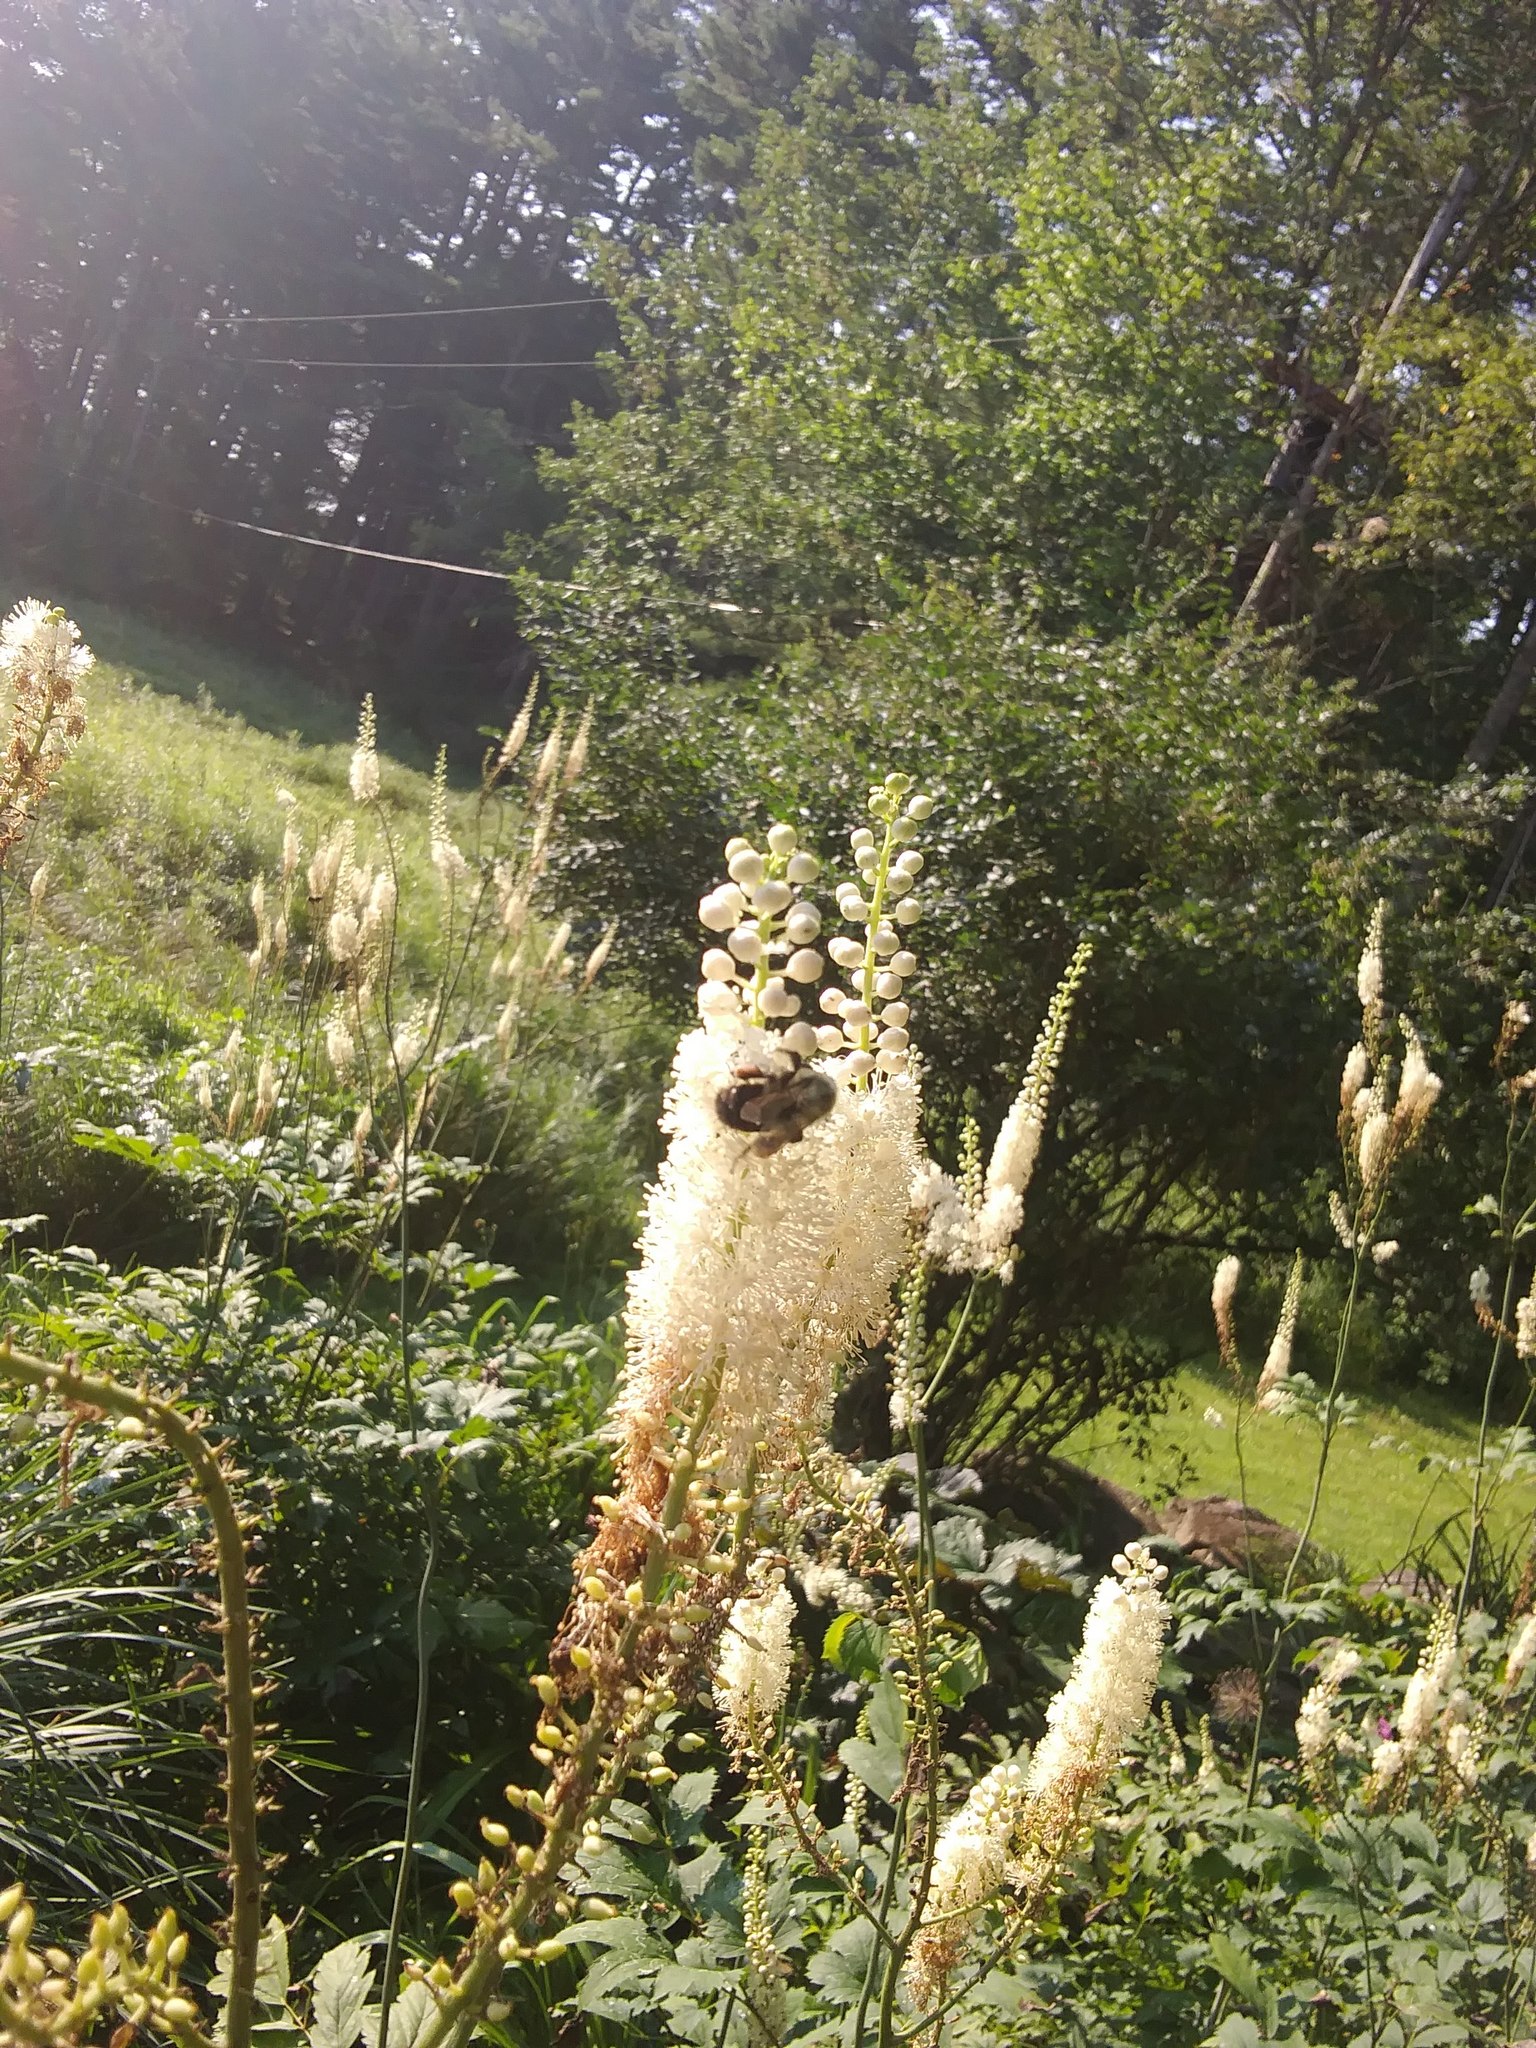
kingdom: Animalia
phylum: Arthropoda
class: Insecta
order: Hymenoptera
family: Apidae
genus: Bombus
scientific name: Bombus impatiens
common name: Common eastern bumble bee
